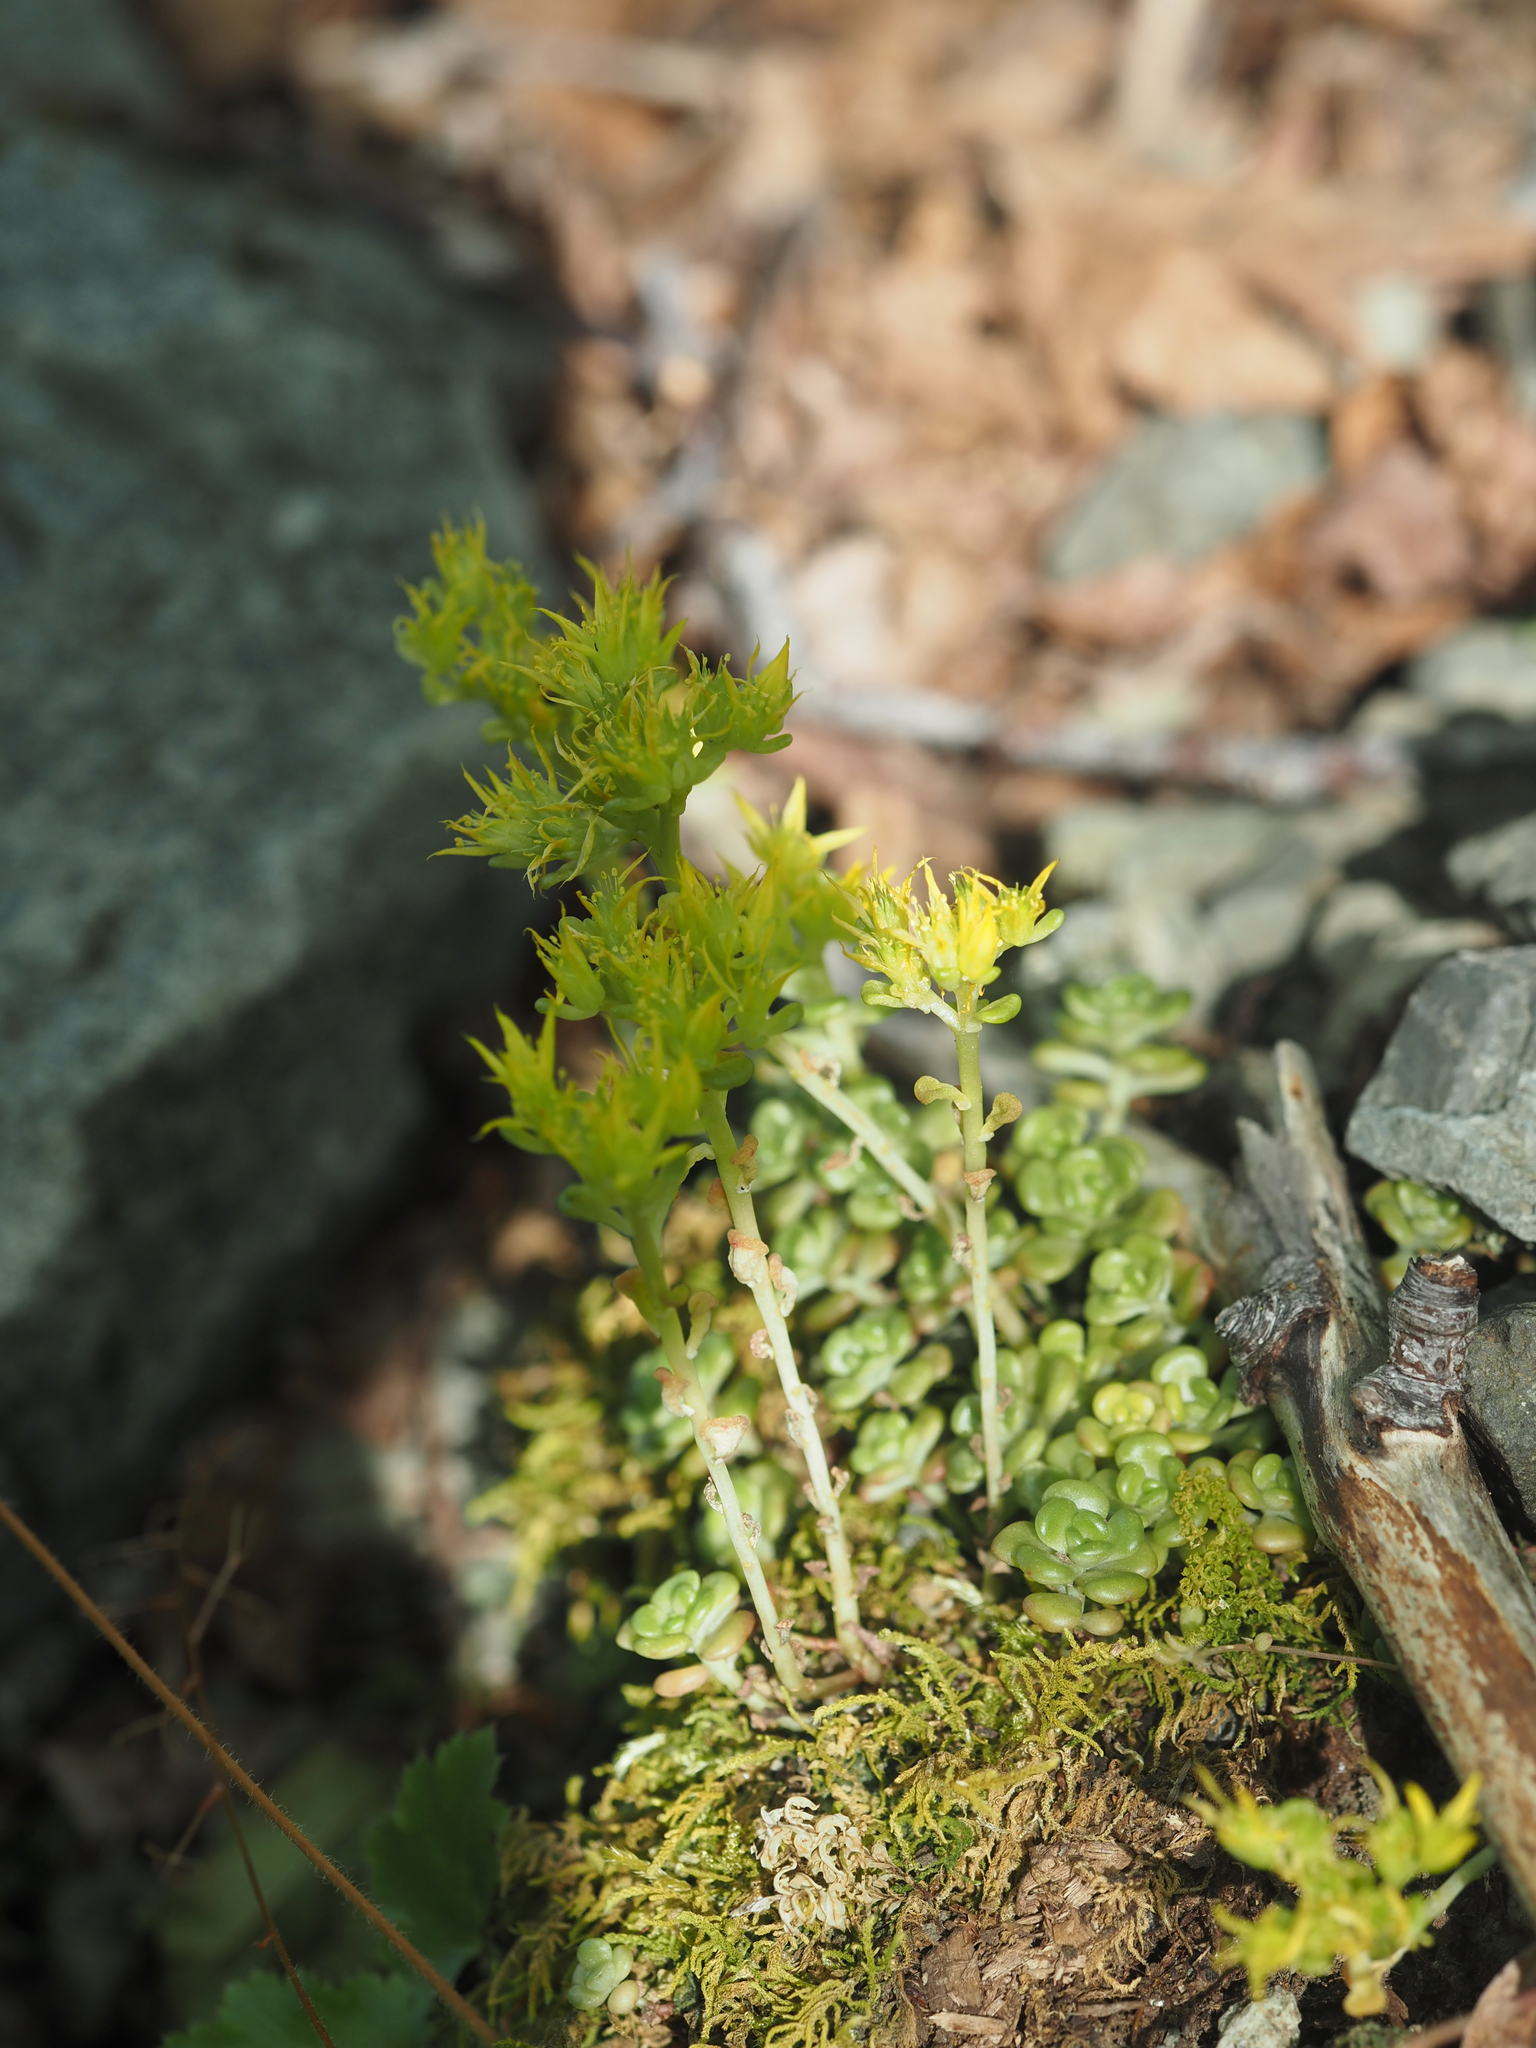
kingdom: Plantae
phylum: Tracheophyta
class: Magnoliopsida
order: Saxifragales
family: Crassulaceae
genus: Sedum
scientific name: Sedum oreganum
